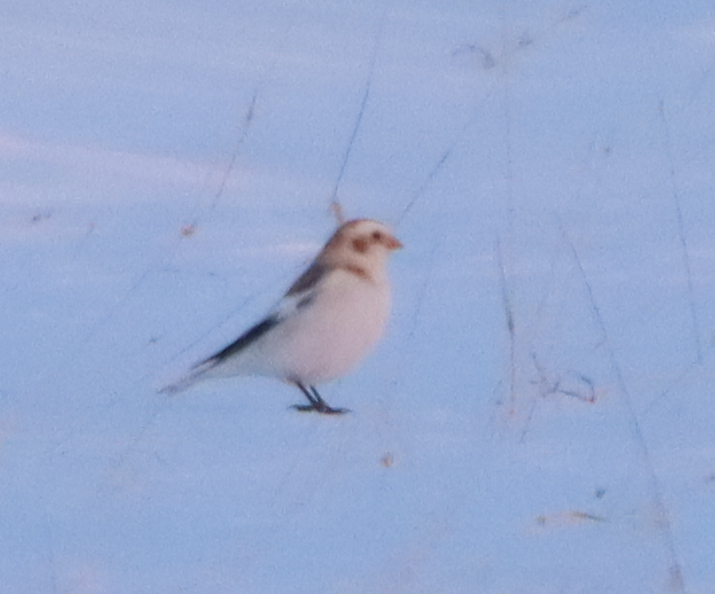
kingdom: Animalia
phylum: Chordata
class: Aves
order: Passeriformes
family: Calcariidae
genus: Plectrophenax
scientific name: Plectrophenax nivalis
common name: Snow bunting
